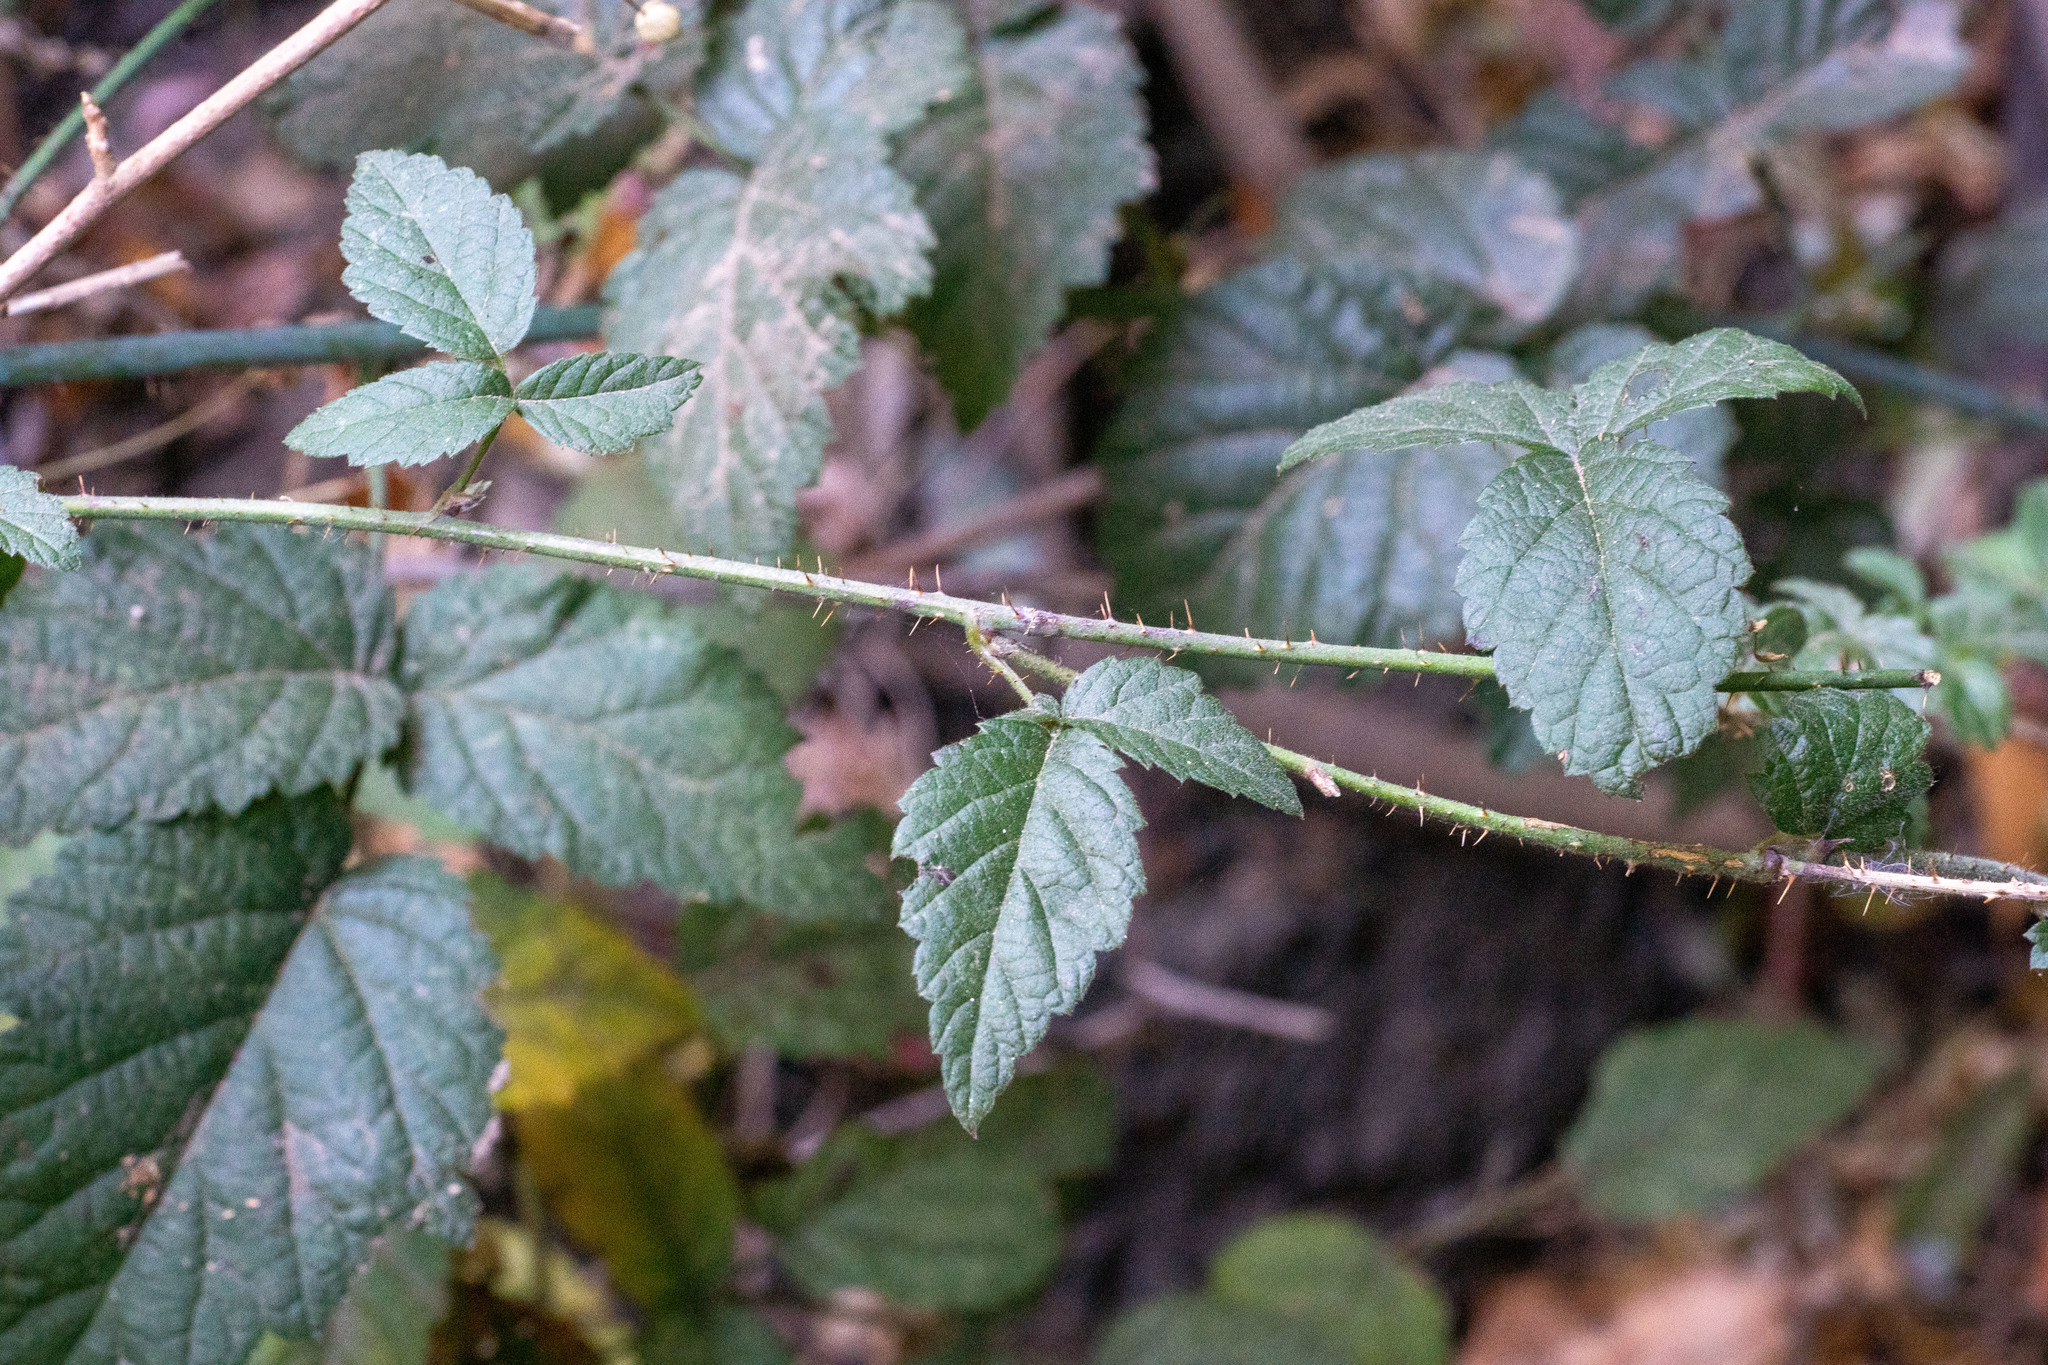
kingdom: Plantae
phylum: Tracheophyta
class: Magnoliopsida
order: Rosales
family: Rosaceae
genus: Rubus
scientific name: Rubus ursinus
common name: Pacific blackberry
